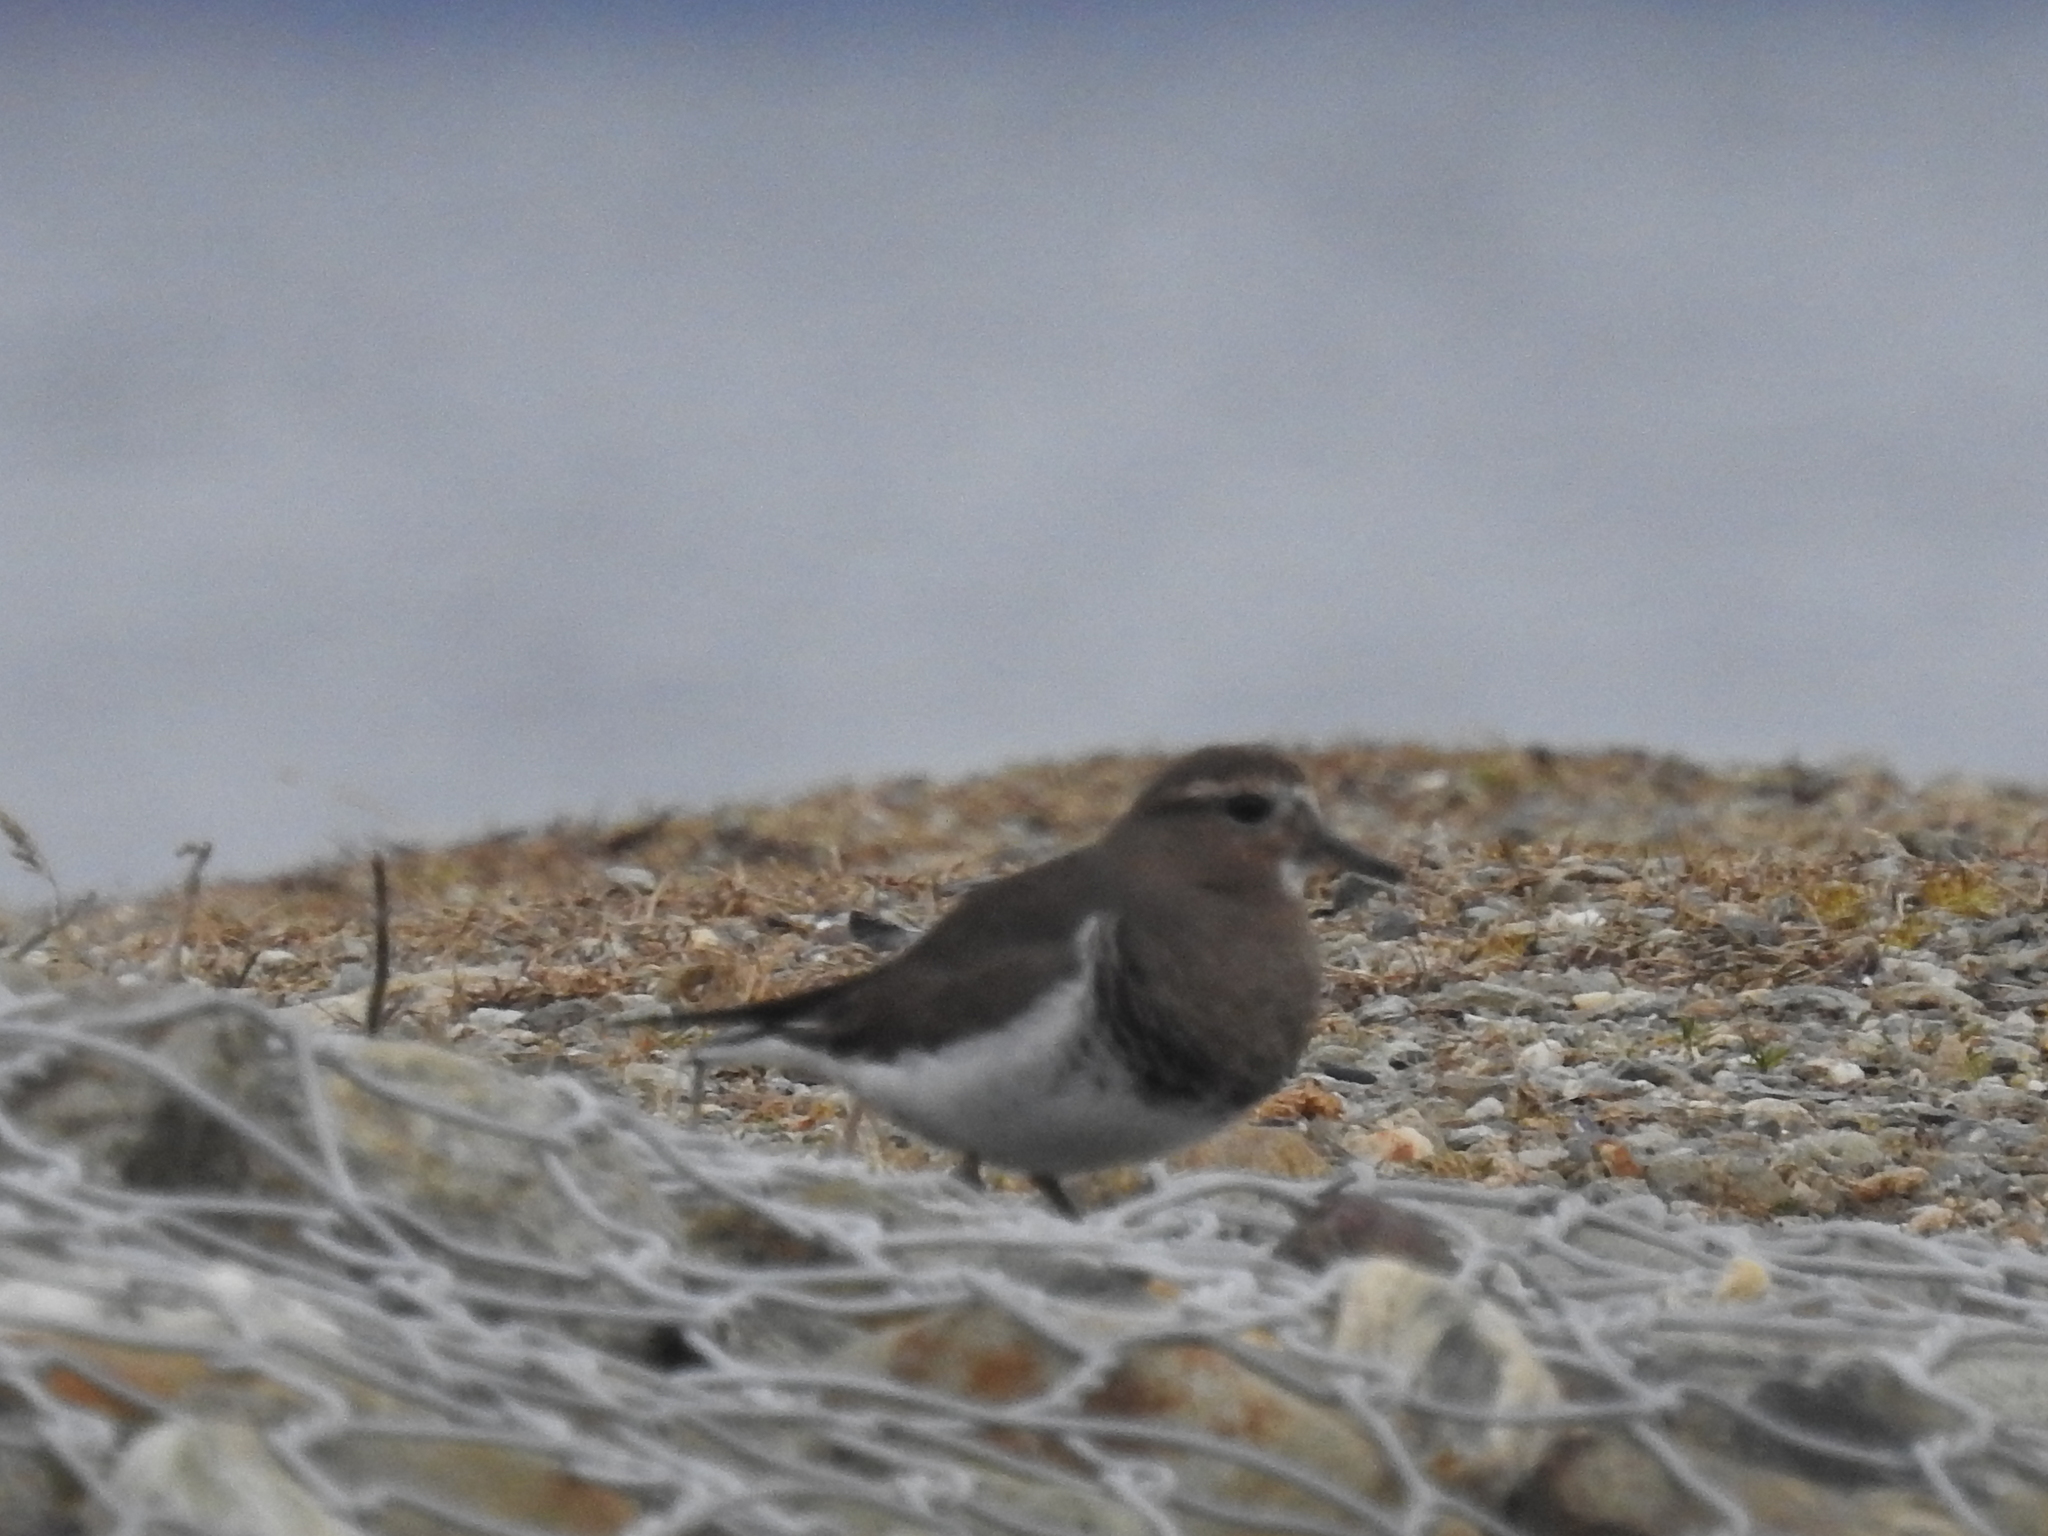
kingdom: Animalia
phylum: Chordata
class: Aves
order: Charadriiformes
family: Charadriidae
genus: Charadrius
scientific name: Charadrius modestus
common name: Rufous-chested plover
